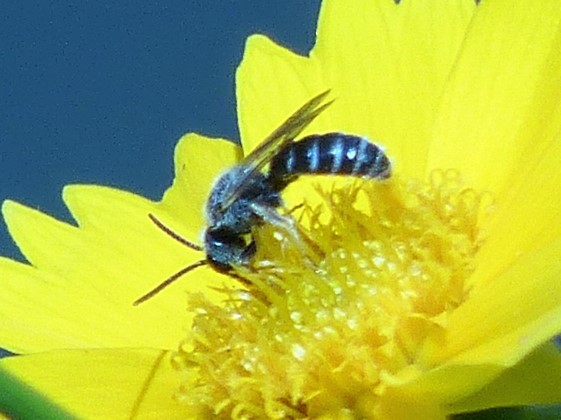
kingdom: Animalia
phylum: Arthropoda
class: Insecta
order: Hymenoptera
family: Halictidae
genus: Halictus
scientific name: Halictus ligatus
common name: Ligated furrow bee
